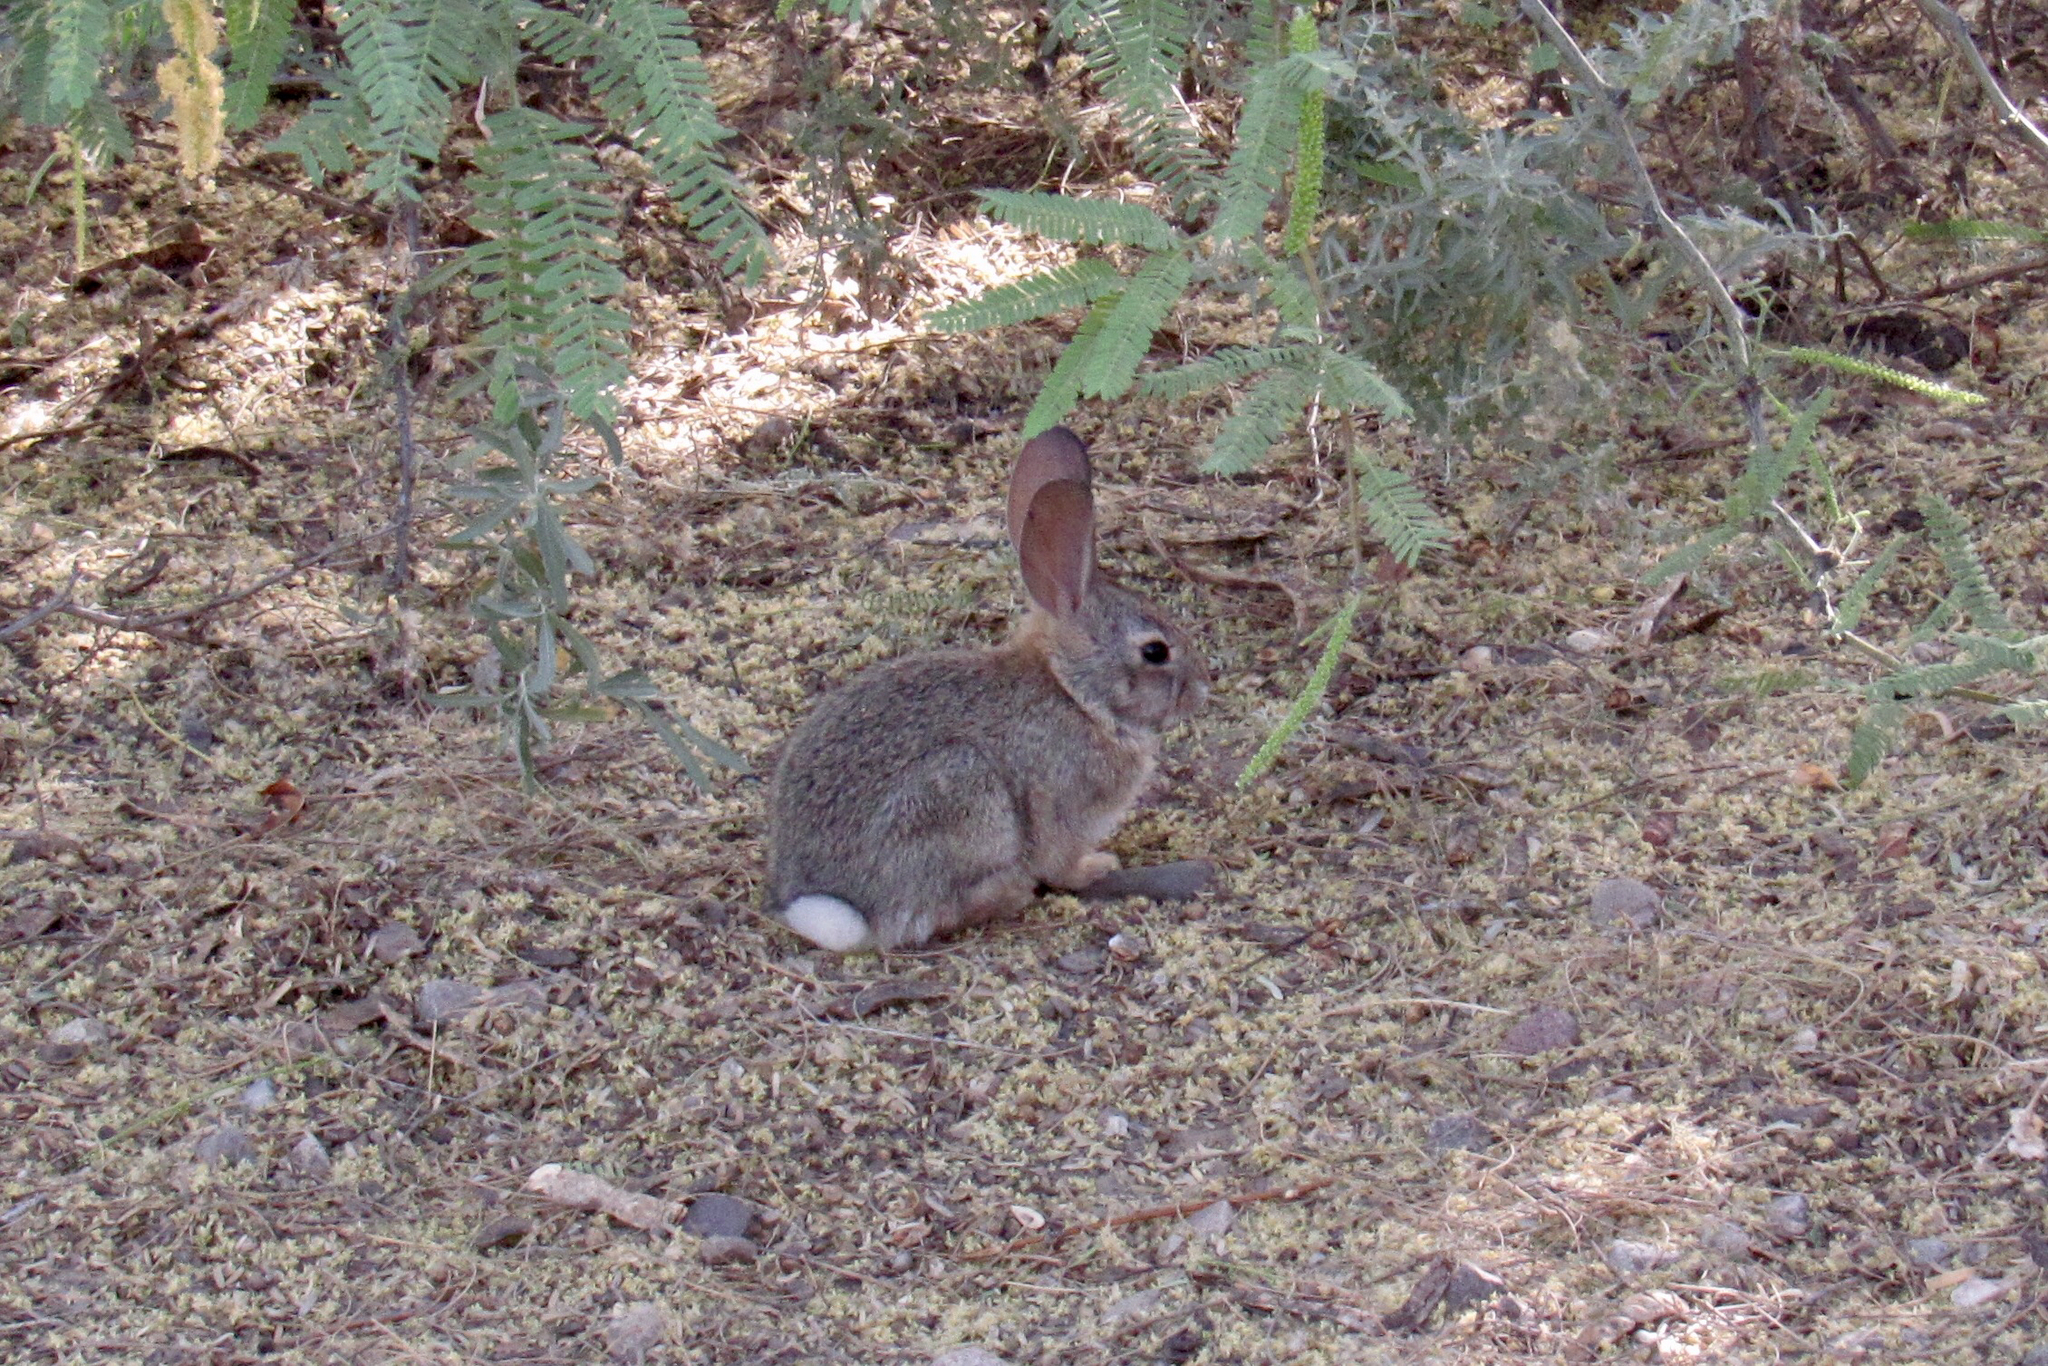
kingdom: Animalia
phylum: Chordata
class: Mammalia
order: Lagomorpha
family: Leporidae
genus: Sylvilagus
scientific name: Sylvilagus audubonii
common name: Desert cottontail
